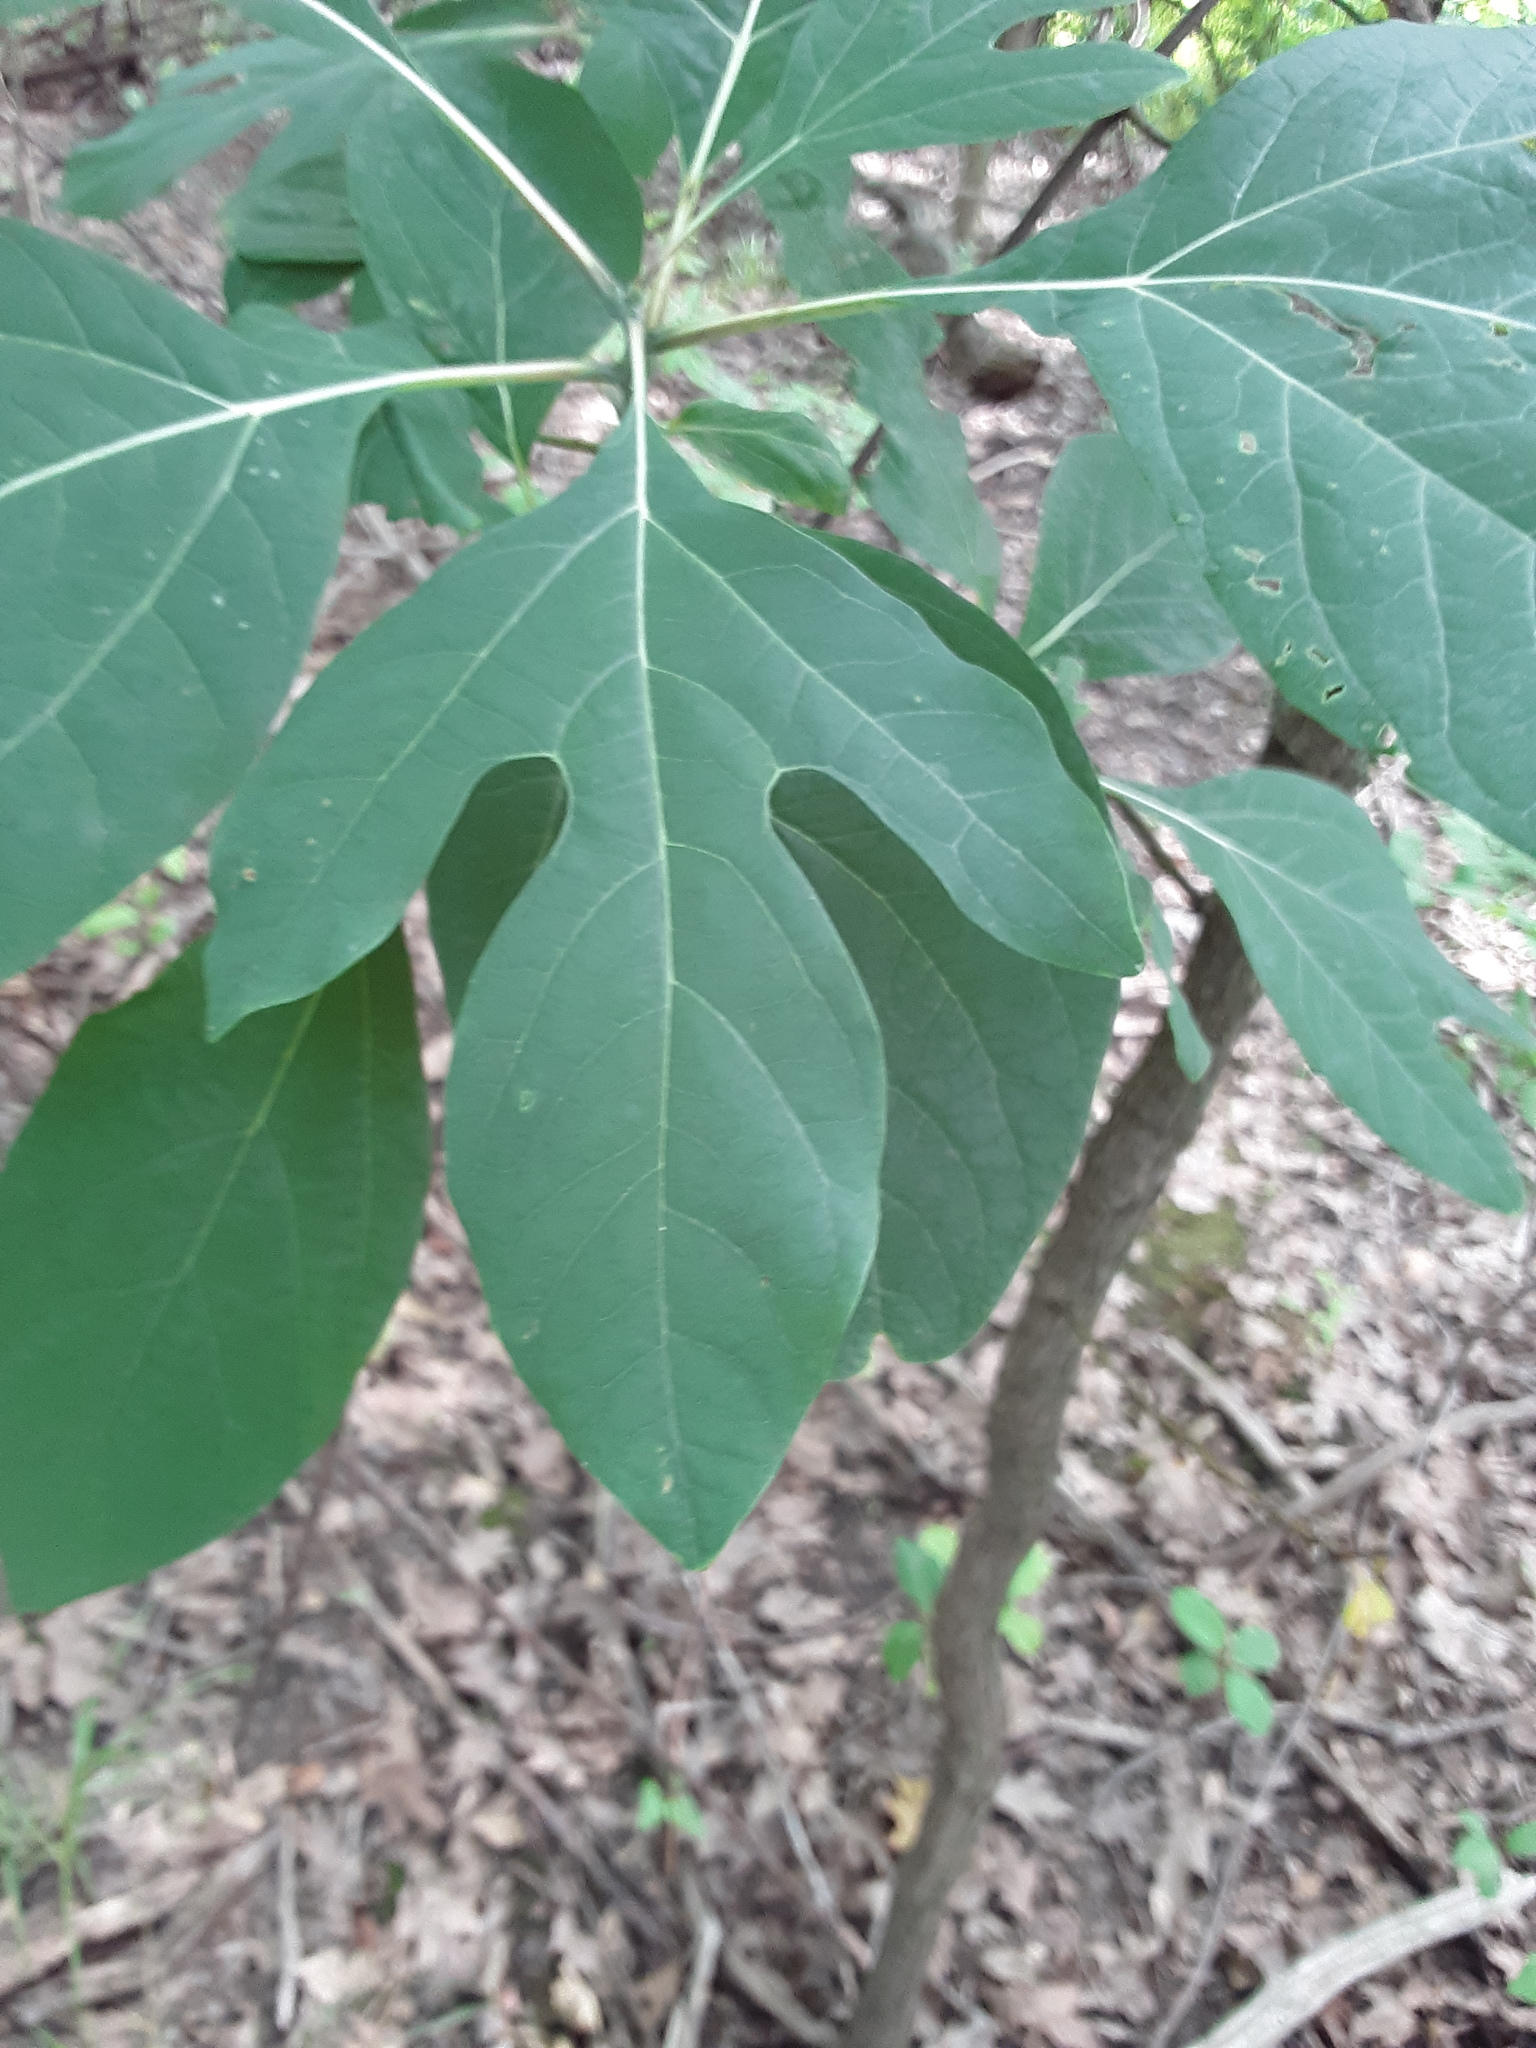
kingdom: Plantae
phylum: Tracheophyta
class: Magnoliopsida
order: Laurales
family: Lauraceae
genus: Sassafras
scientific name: Sassafras albidum
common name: Sassafras
